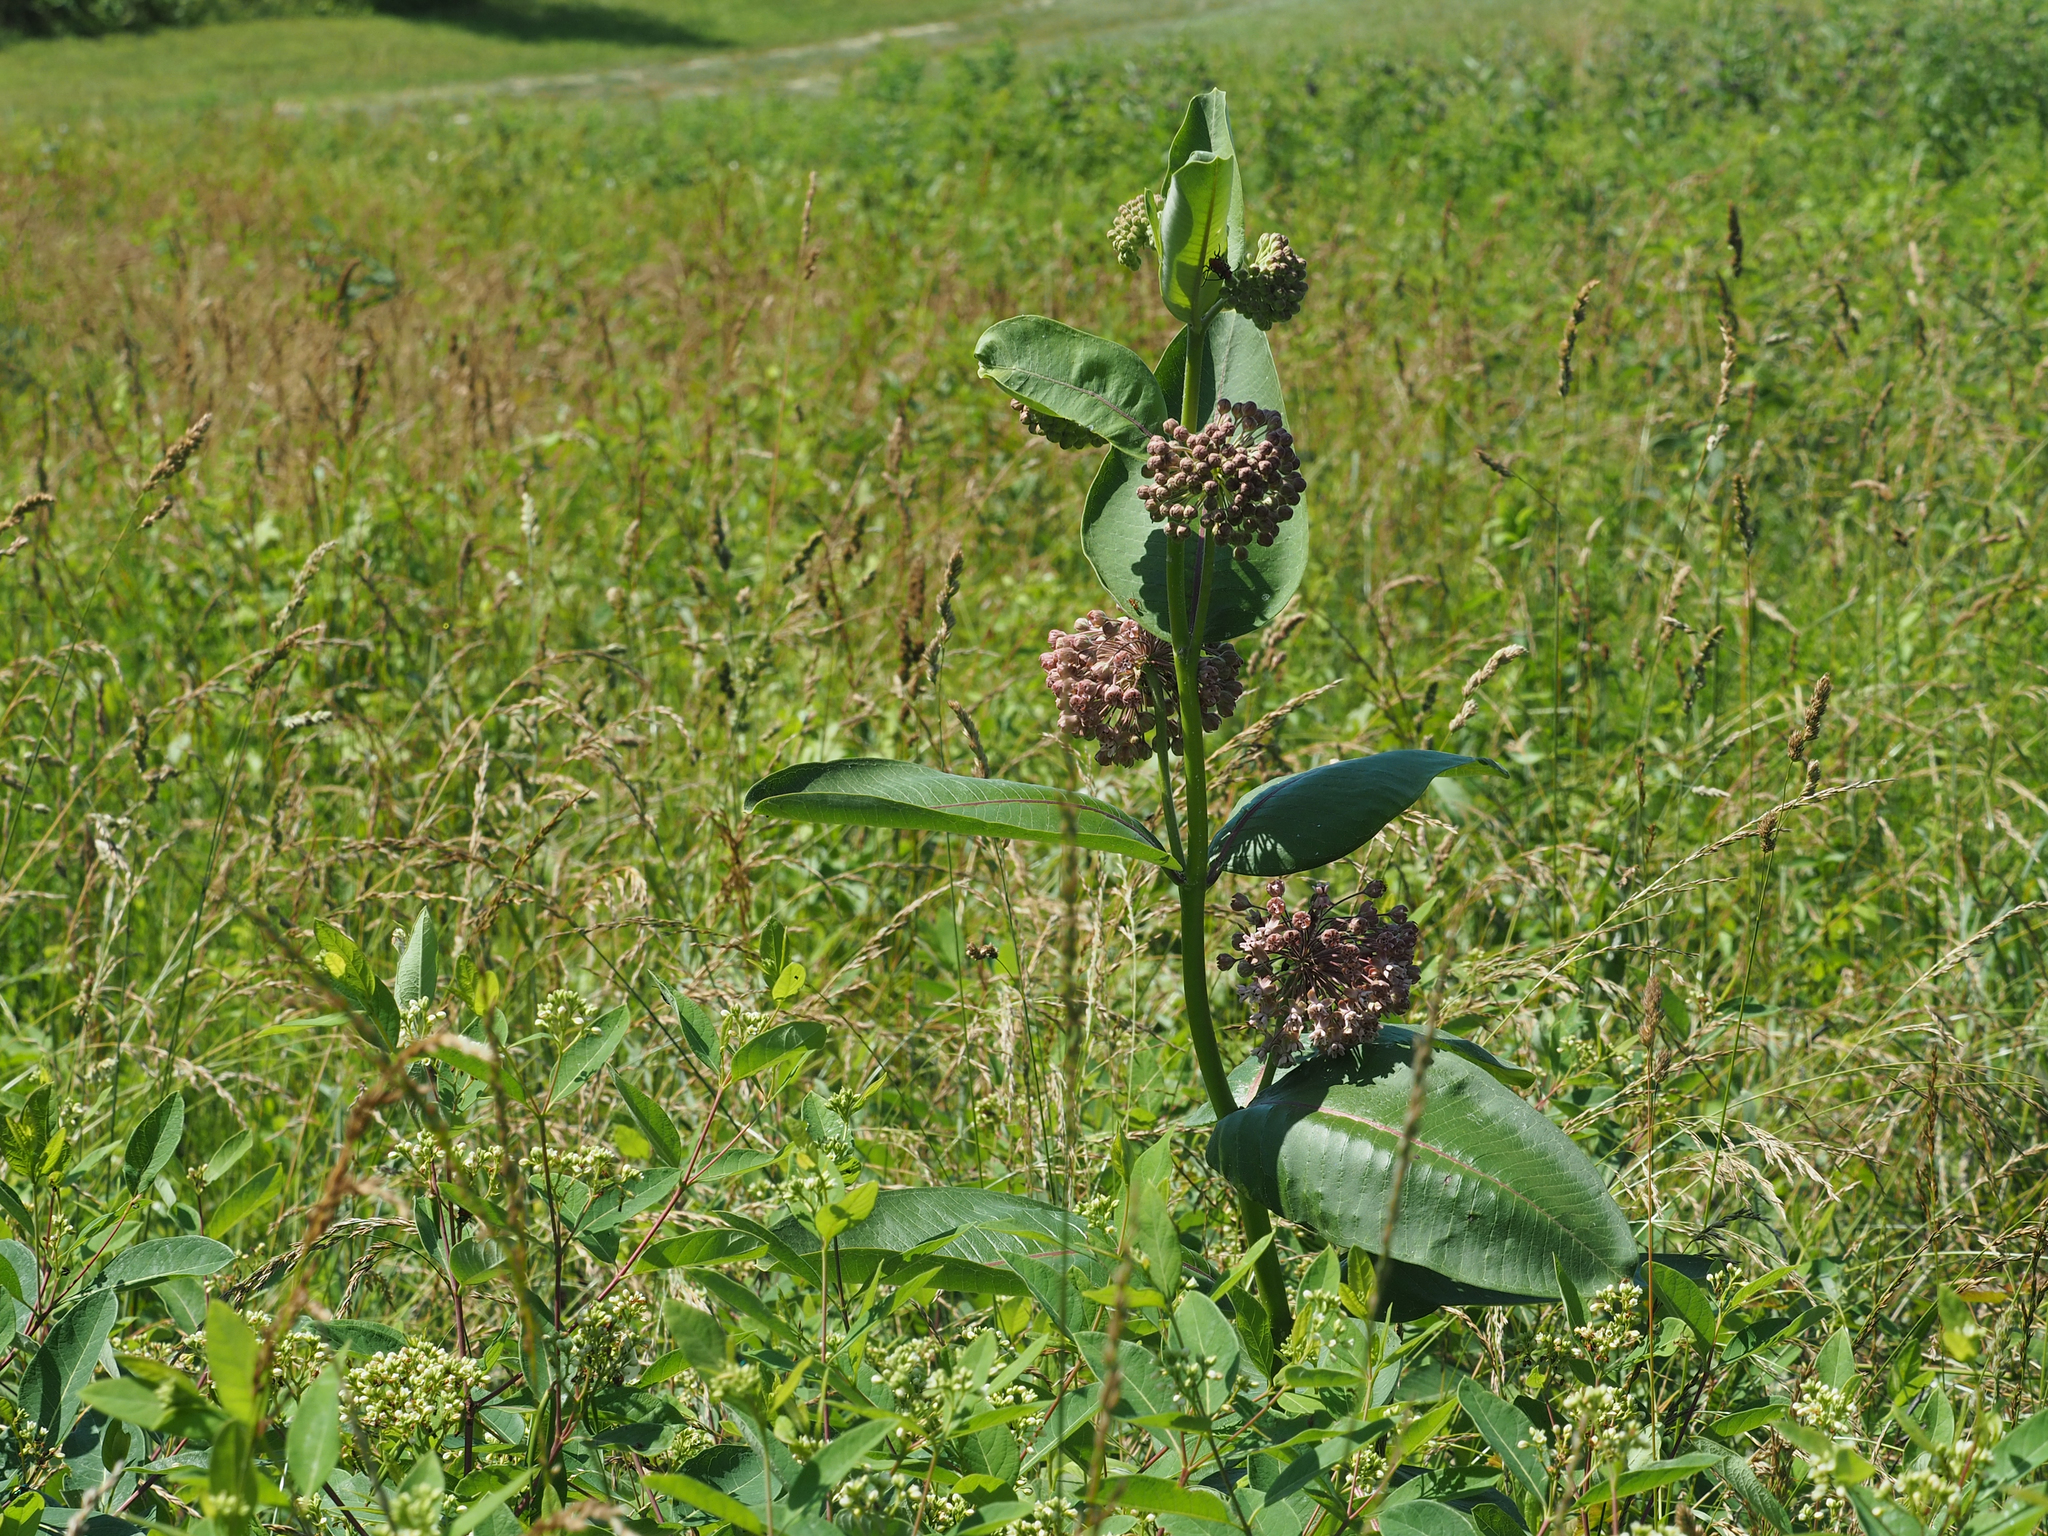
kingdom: Plantae
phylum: Tracheophyta
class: Magnoliopsida
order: Gentianales
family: Apocynaceae
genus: Asclepias
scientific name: Asclepias syriaca
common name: Common milkweed
